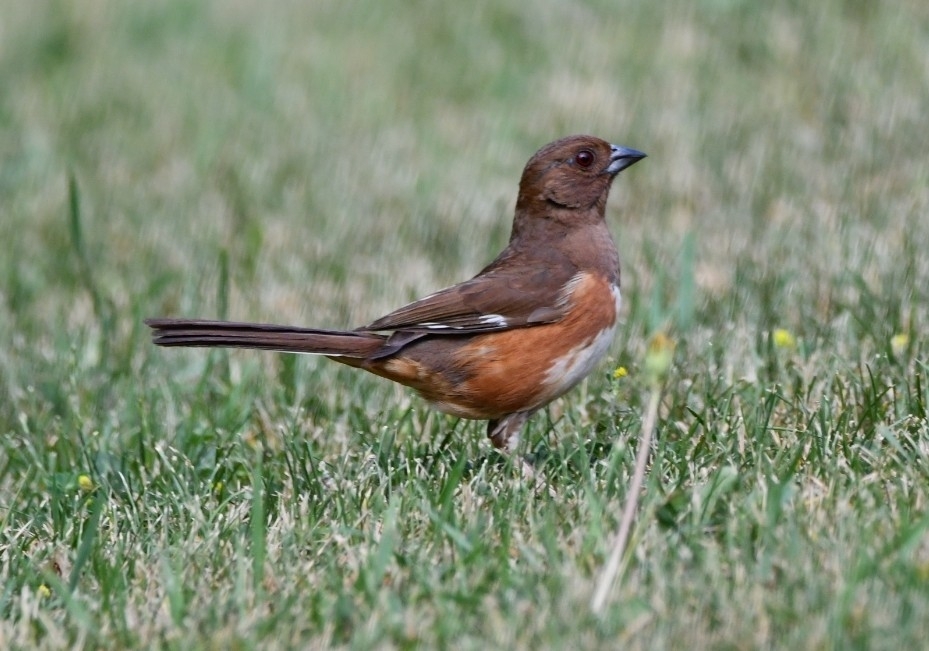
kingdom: Animalia
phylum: Chordata
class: Aves
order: Passeriformes
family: Passerellidae
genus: Pipilo
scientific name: Pipilo erythrophthalmus
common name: Eastern towhee
